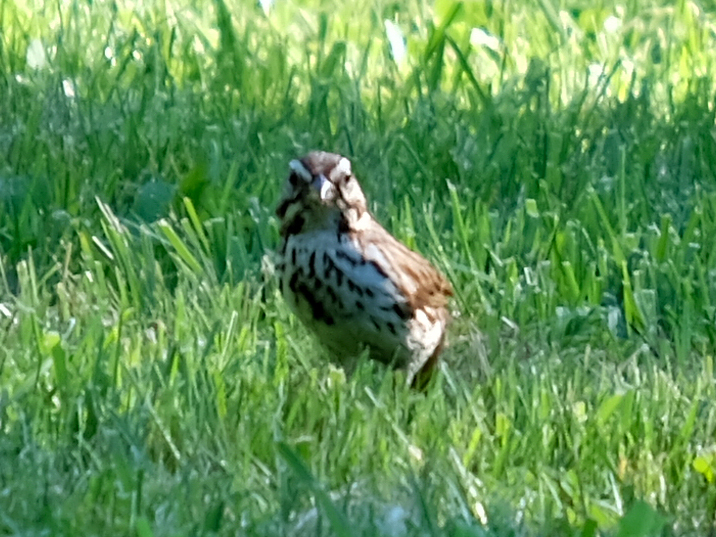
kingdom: Animalia
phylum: Chordata
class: Aves
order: Passeriformes
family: Passerellidae
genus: Melospiza
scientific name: Melospiza melodia
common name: Song sparrow
